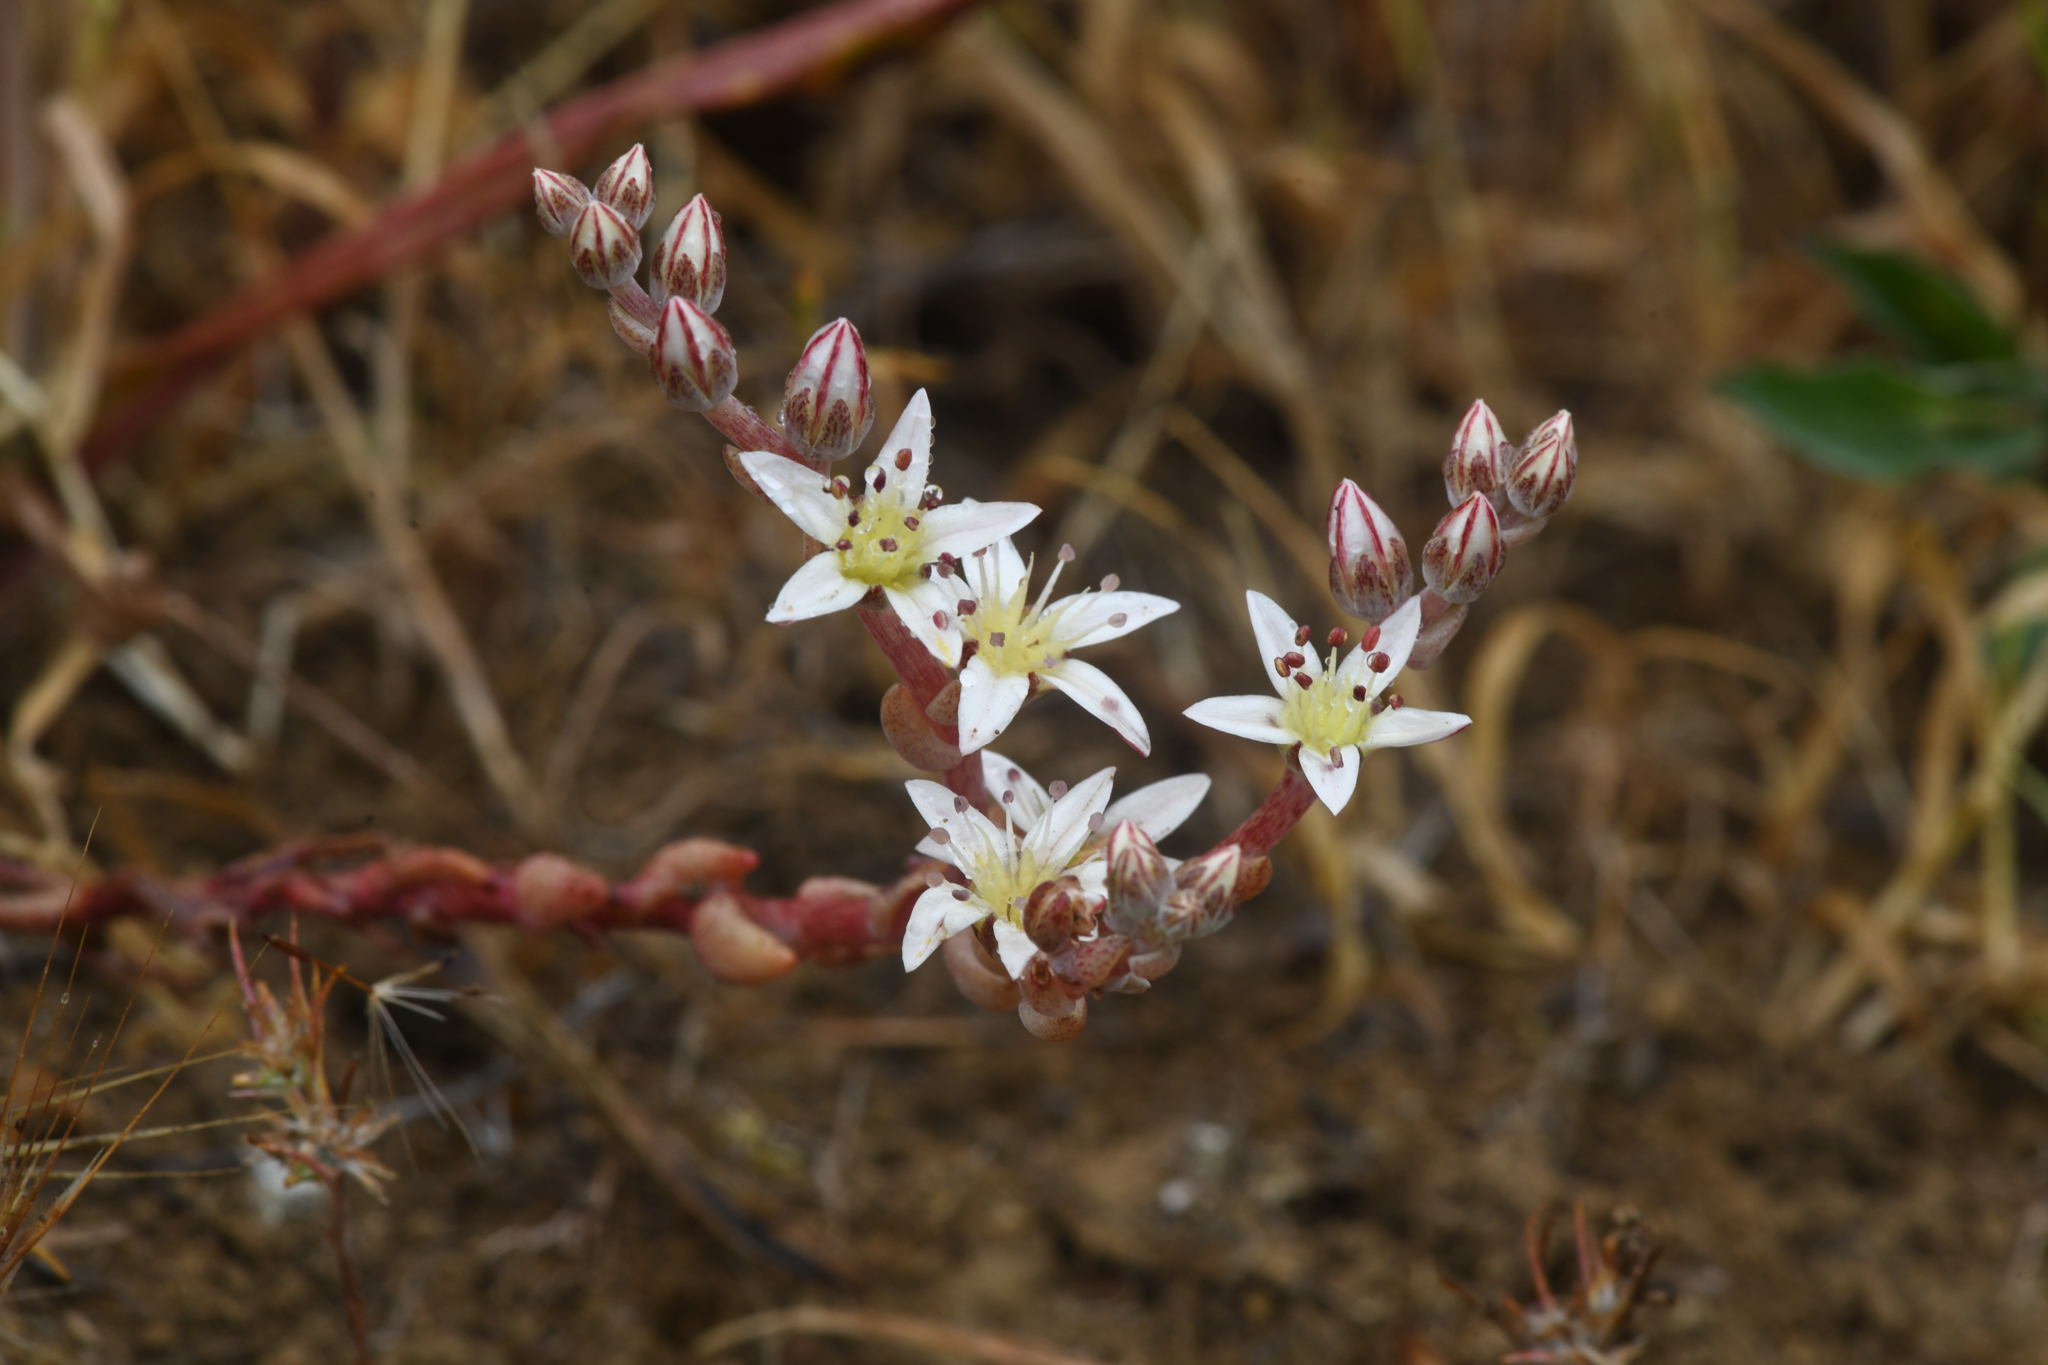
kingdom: Plantae
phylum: Tracheophyta
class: Magnoliopsida
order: Saxifragales
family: Crassulaceae
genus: Dudleya
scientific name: Dudleya blochmaniae
